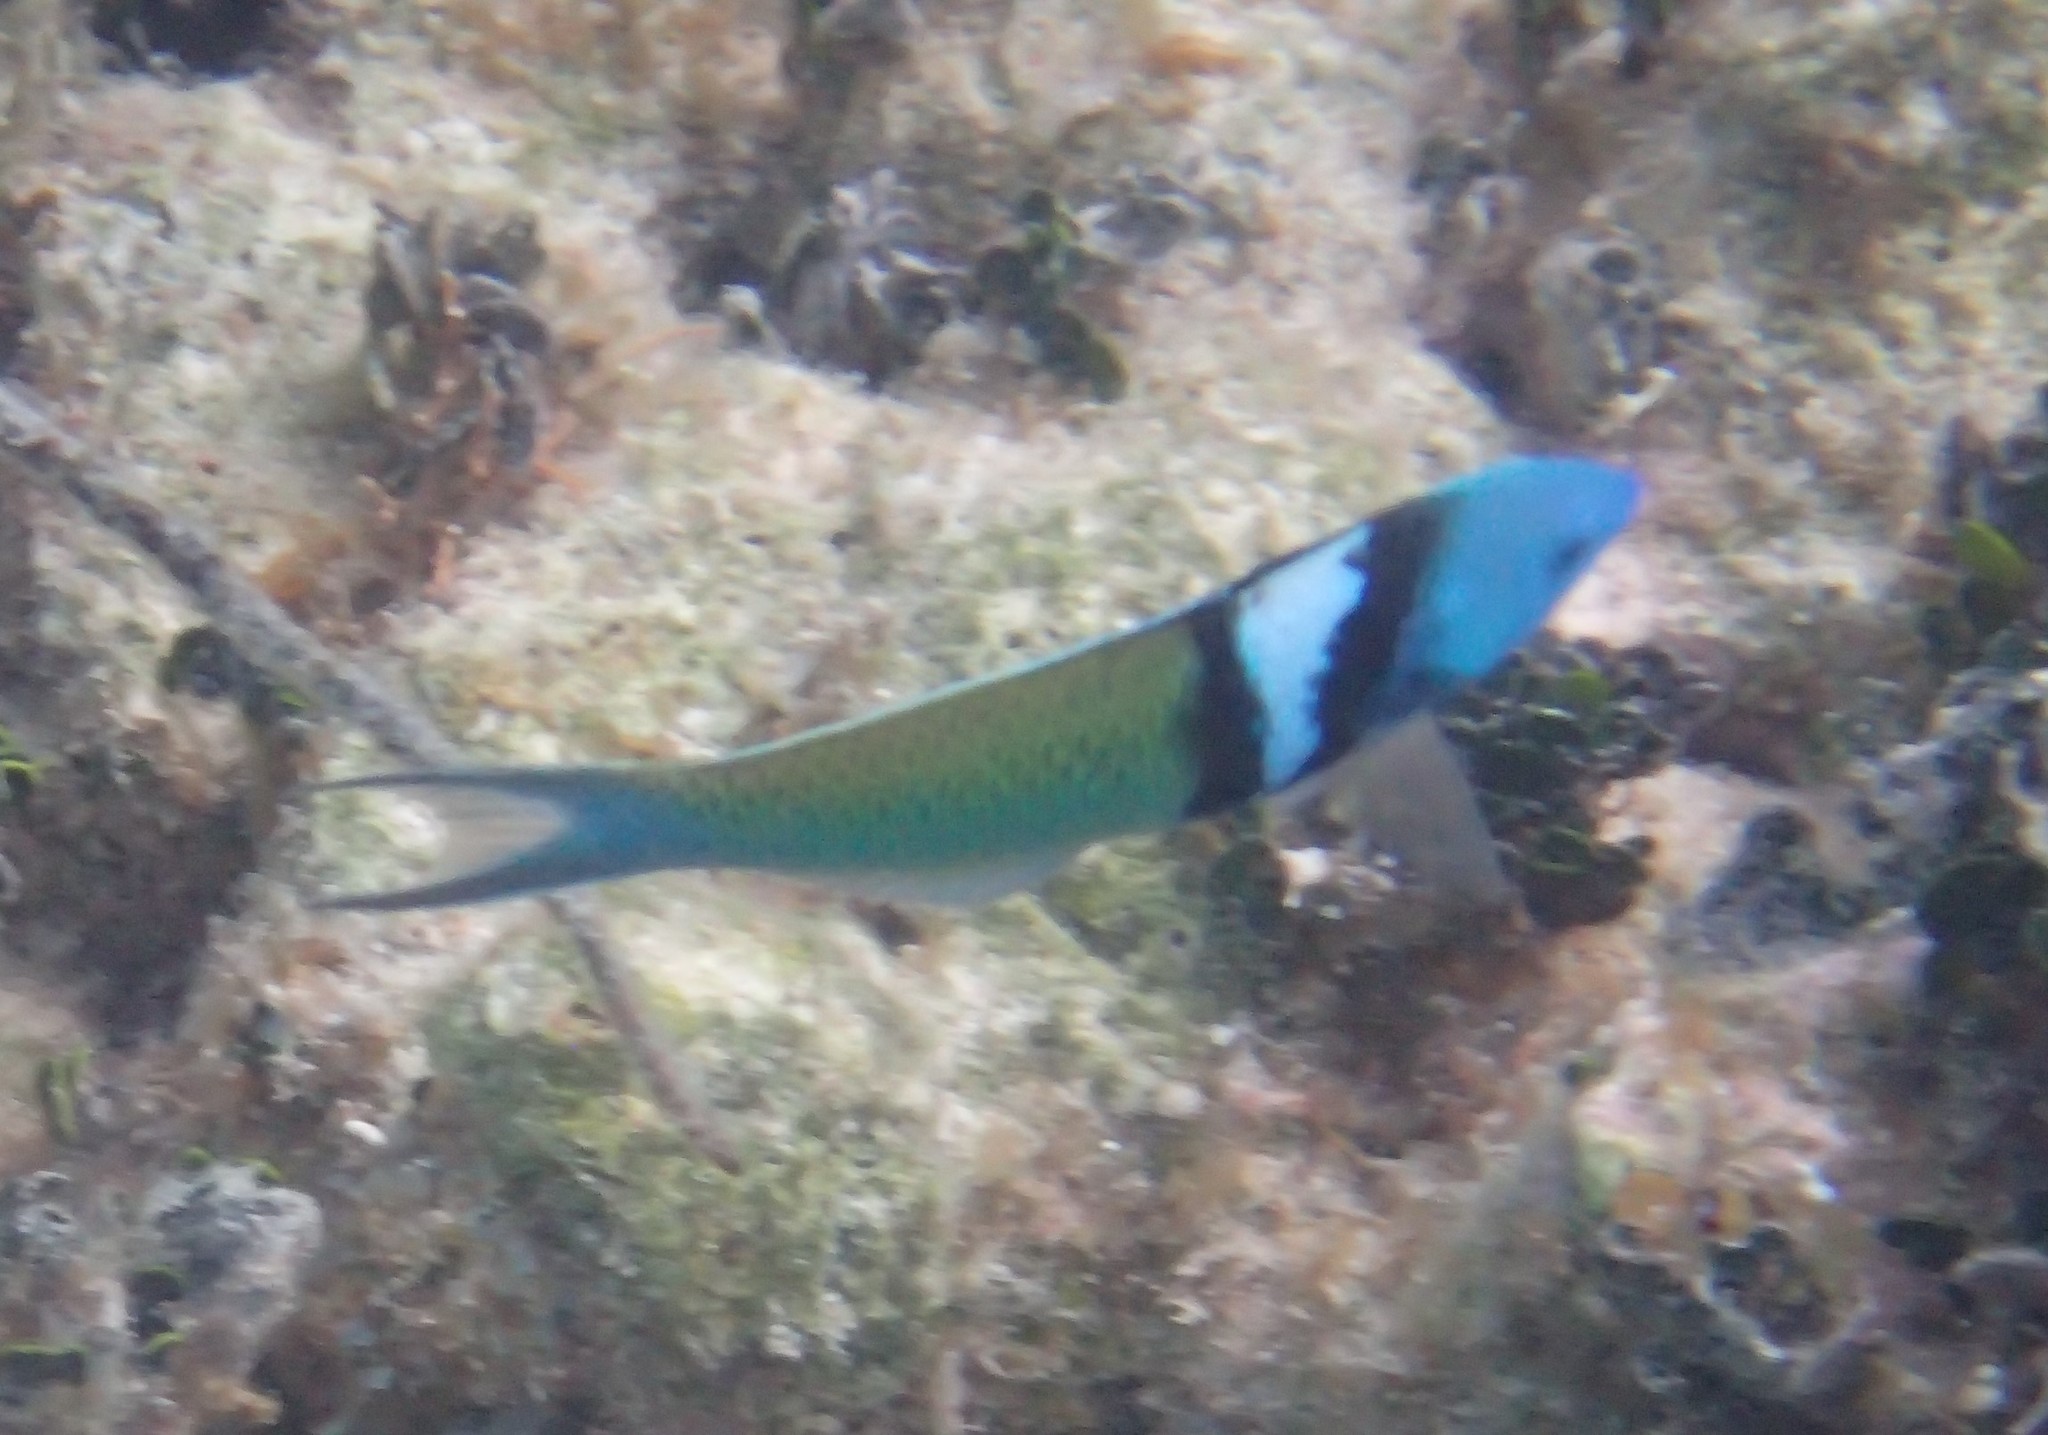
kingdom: Animalia
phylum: Chordata
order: Perciformes
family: Labridae
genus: Thalassoma
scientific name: Thalassoma bifasciatum
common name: Bluehead wrasse
